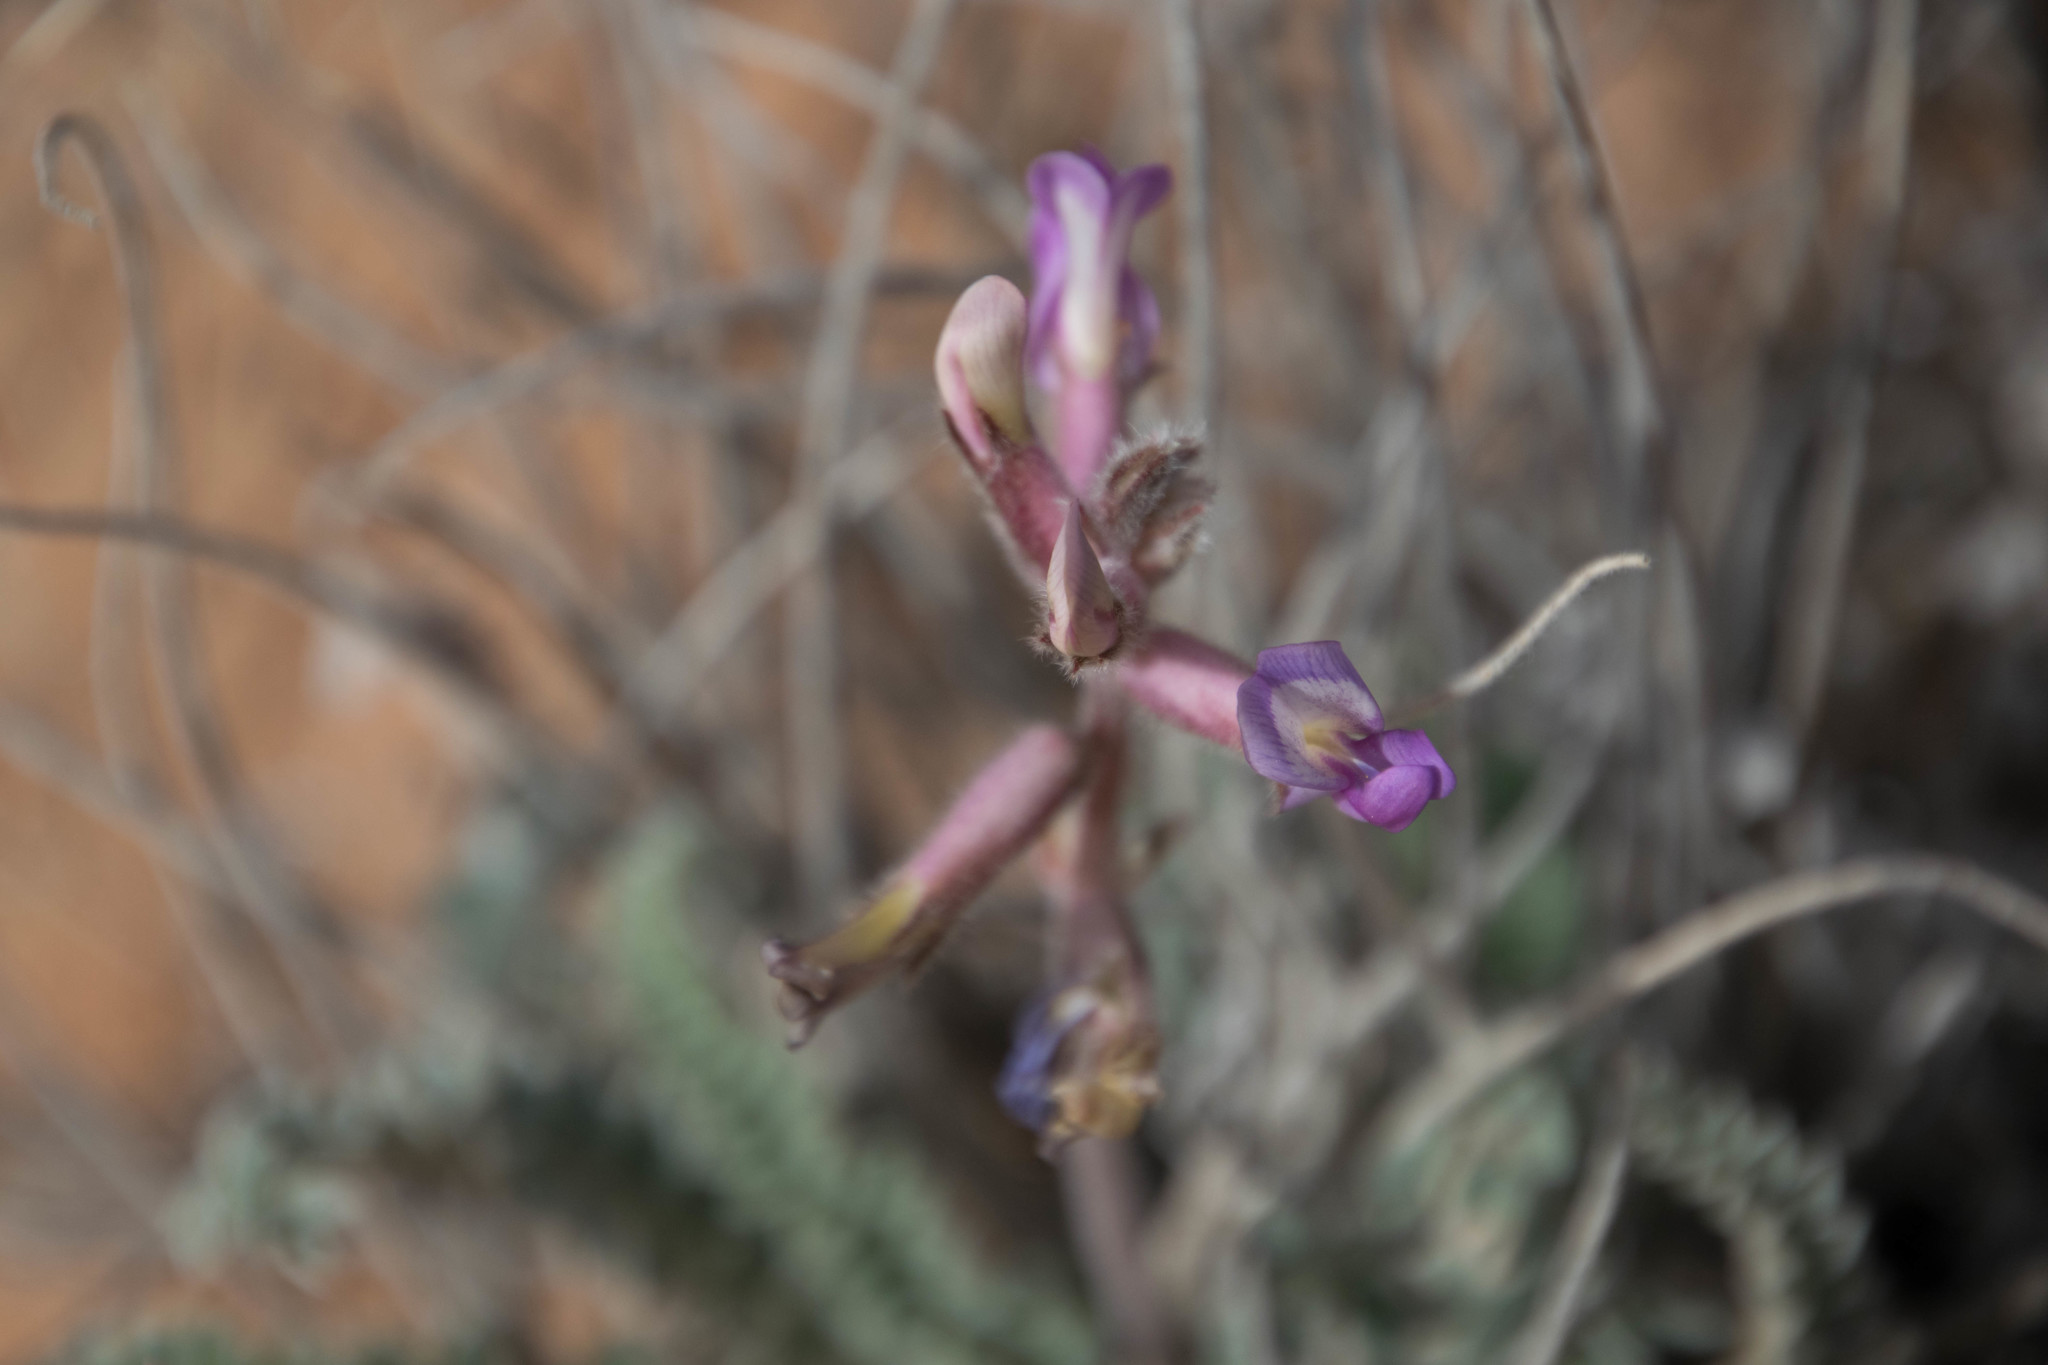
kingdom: Plantae
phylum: Tracheophyta
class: Magnoliopsida
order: Fabales
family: Fabaceae
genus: Astragalus
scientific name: Astragalus mollissimus
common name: Woolly locoweed
